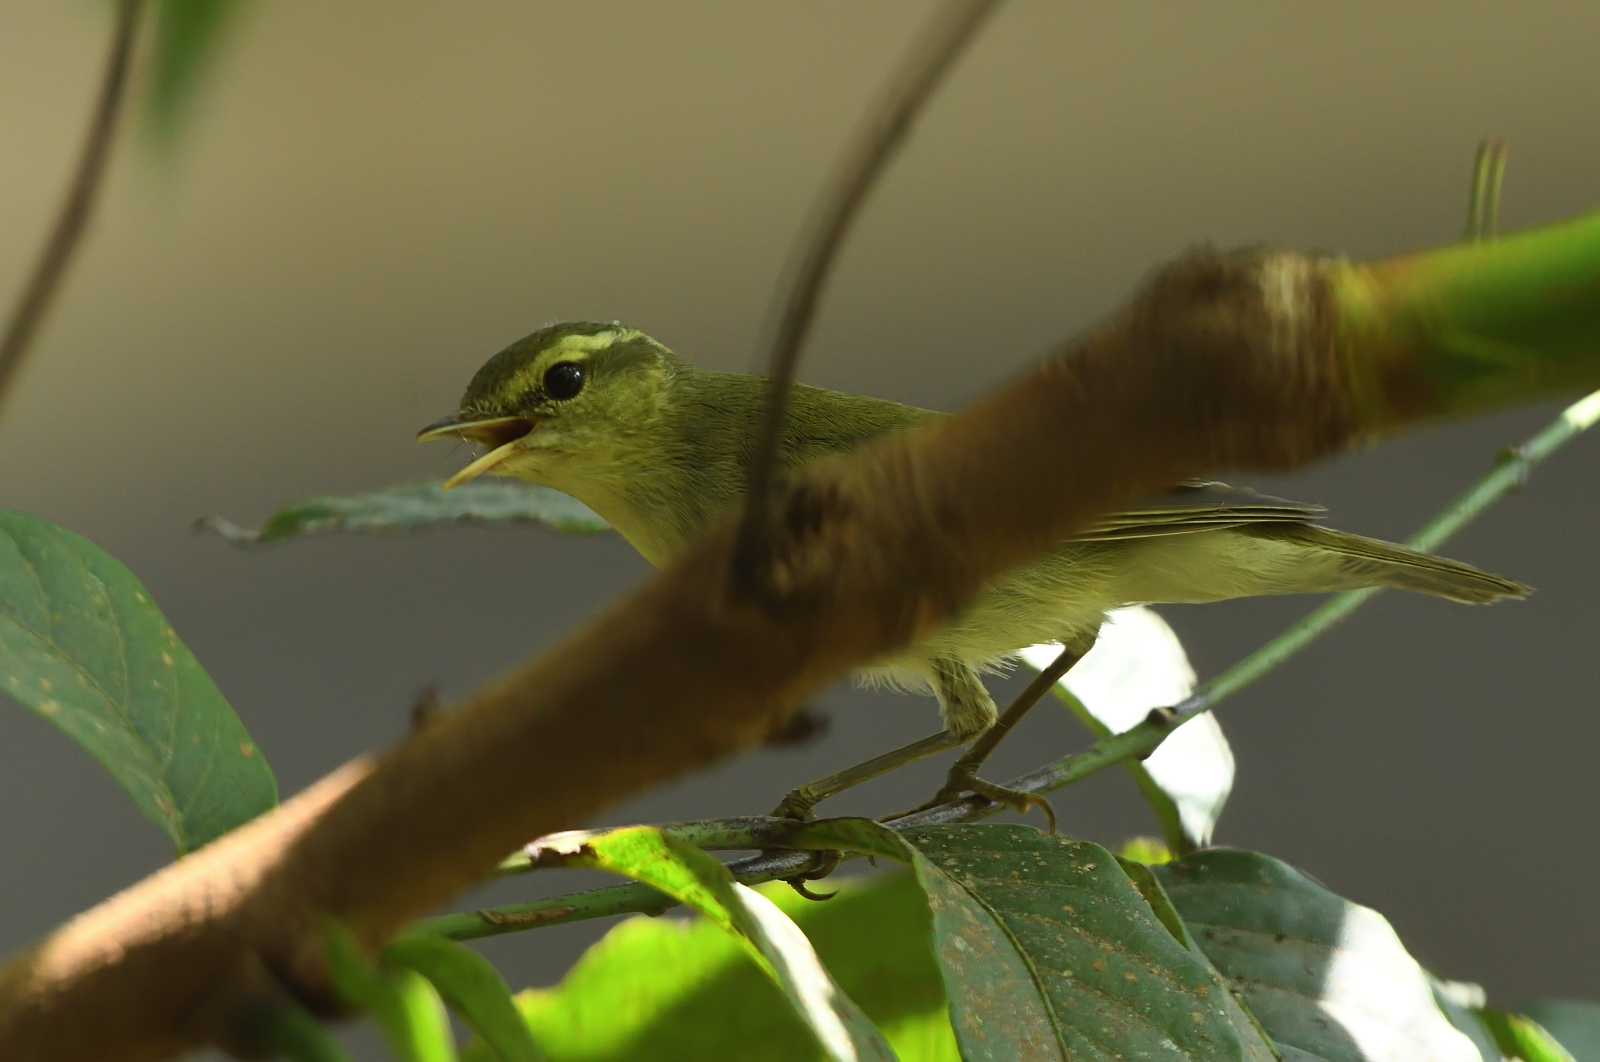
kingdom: Animalia
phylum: Chordata
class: Aves
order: Passeriformes
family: Phylloscopidae
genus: Phylloscopus
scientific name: Phylloscopus trochiloides
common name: Greenish warbler
